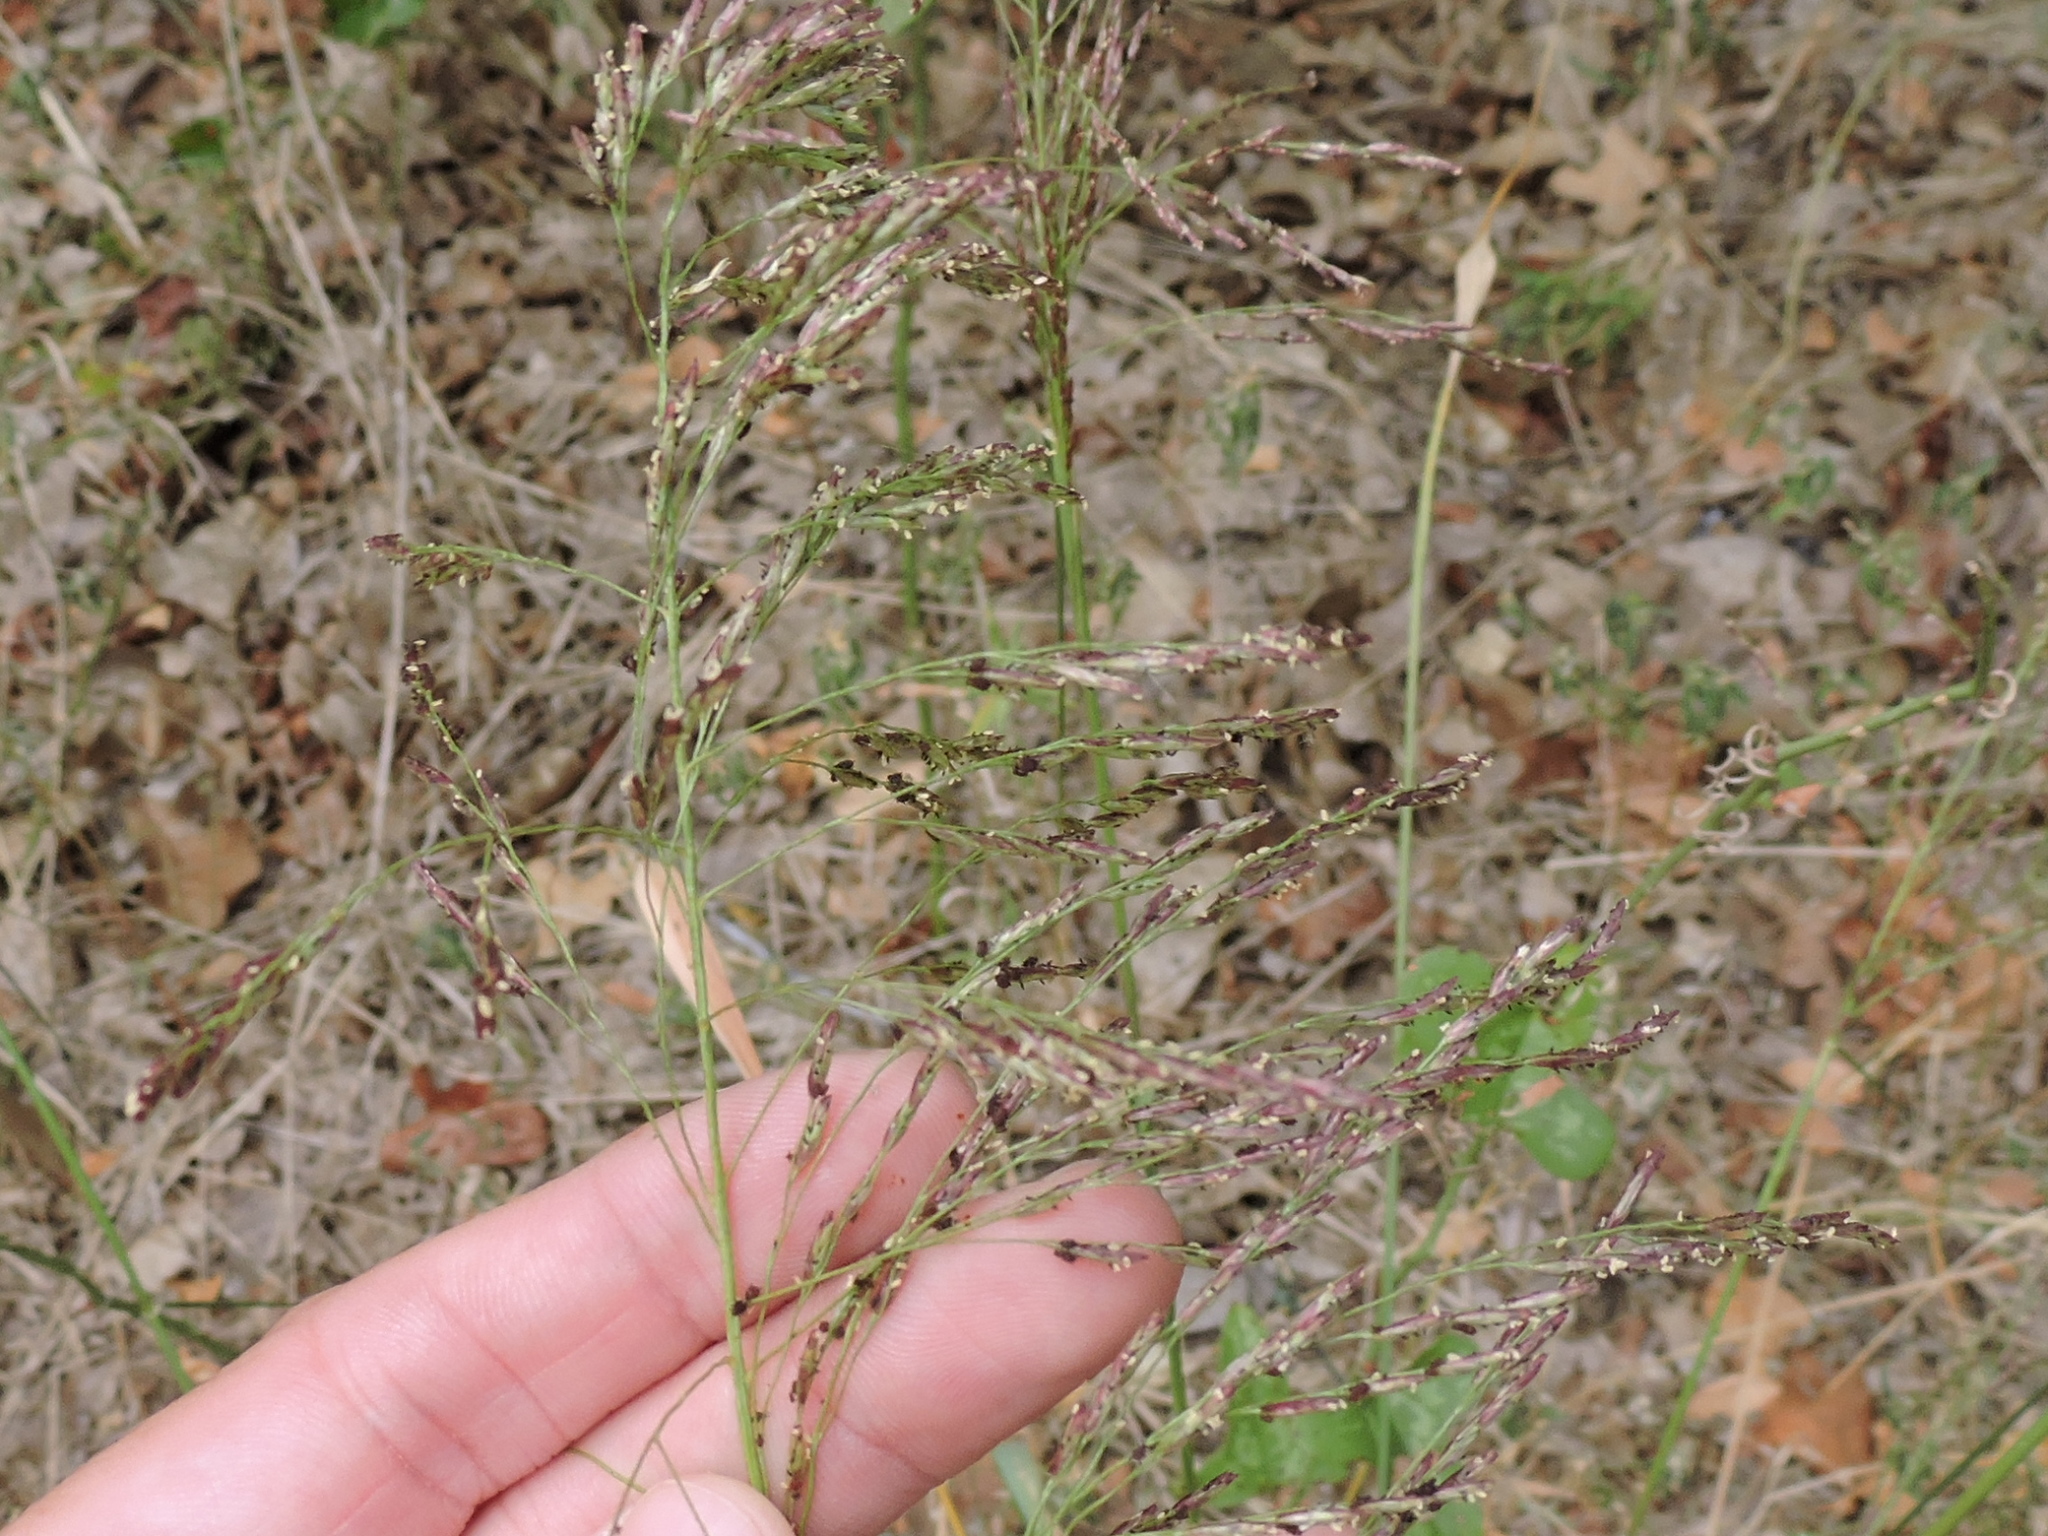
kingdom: Plantae
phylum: Tracheophyta
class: Liliopsida
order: Poales
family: Poaceae
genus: Tridens
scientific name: Tridens flavus
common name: Purpletop
